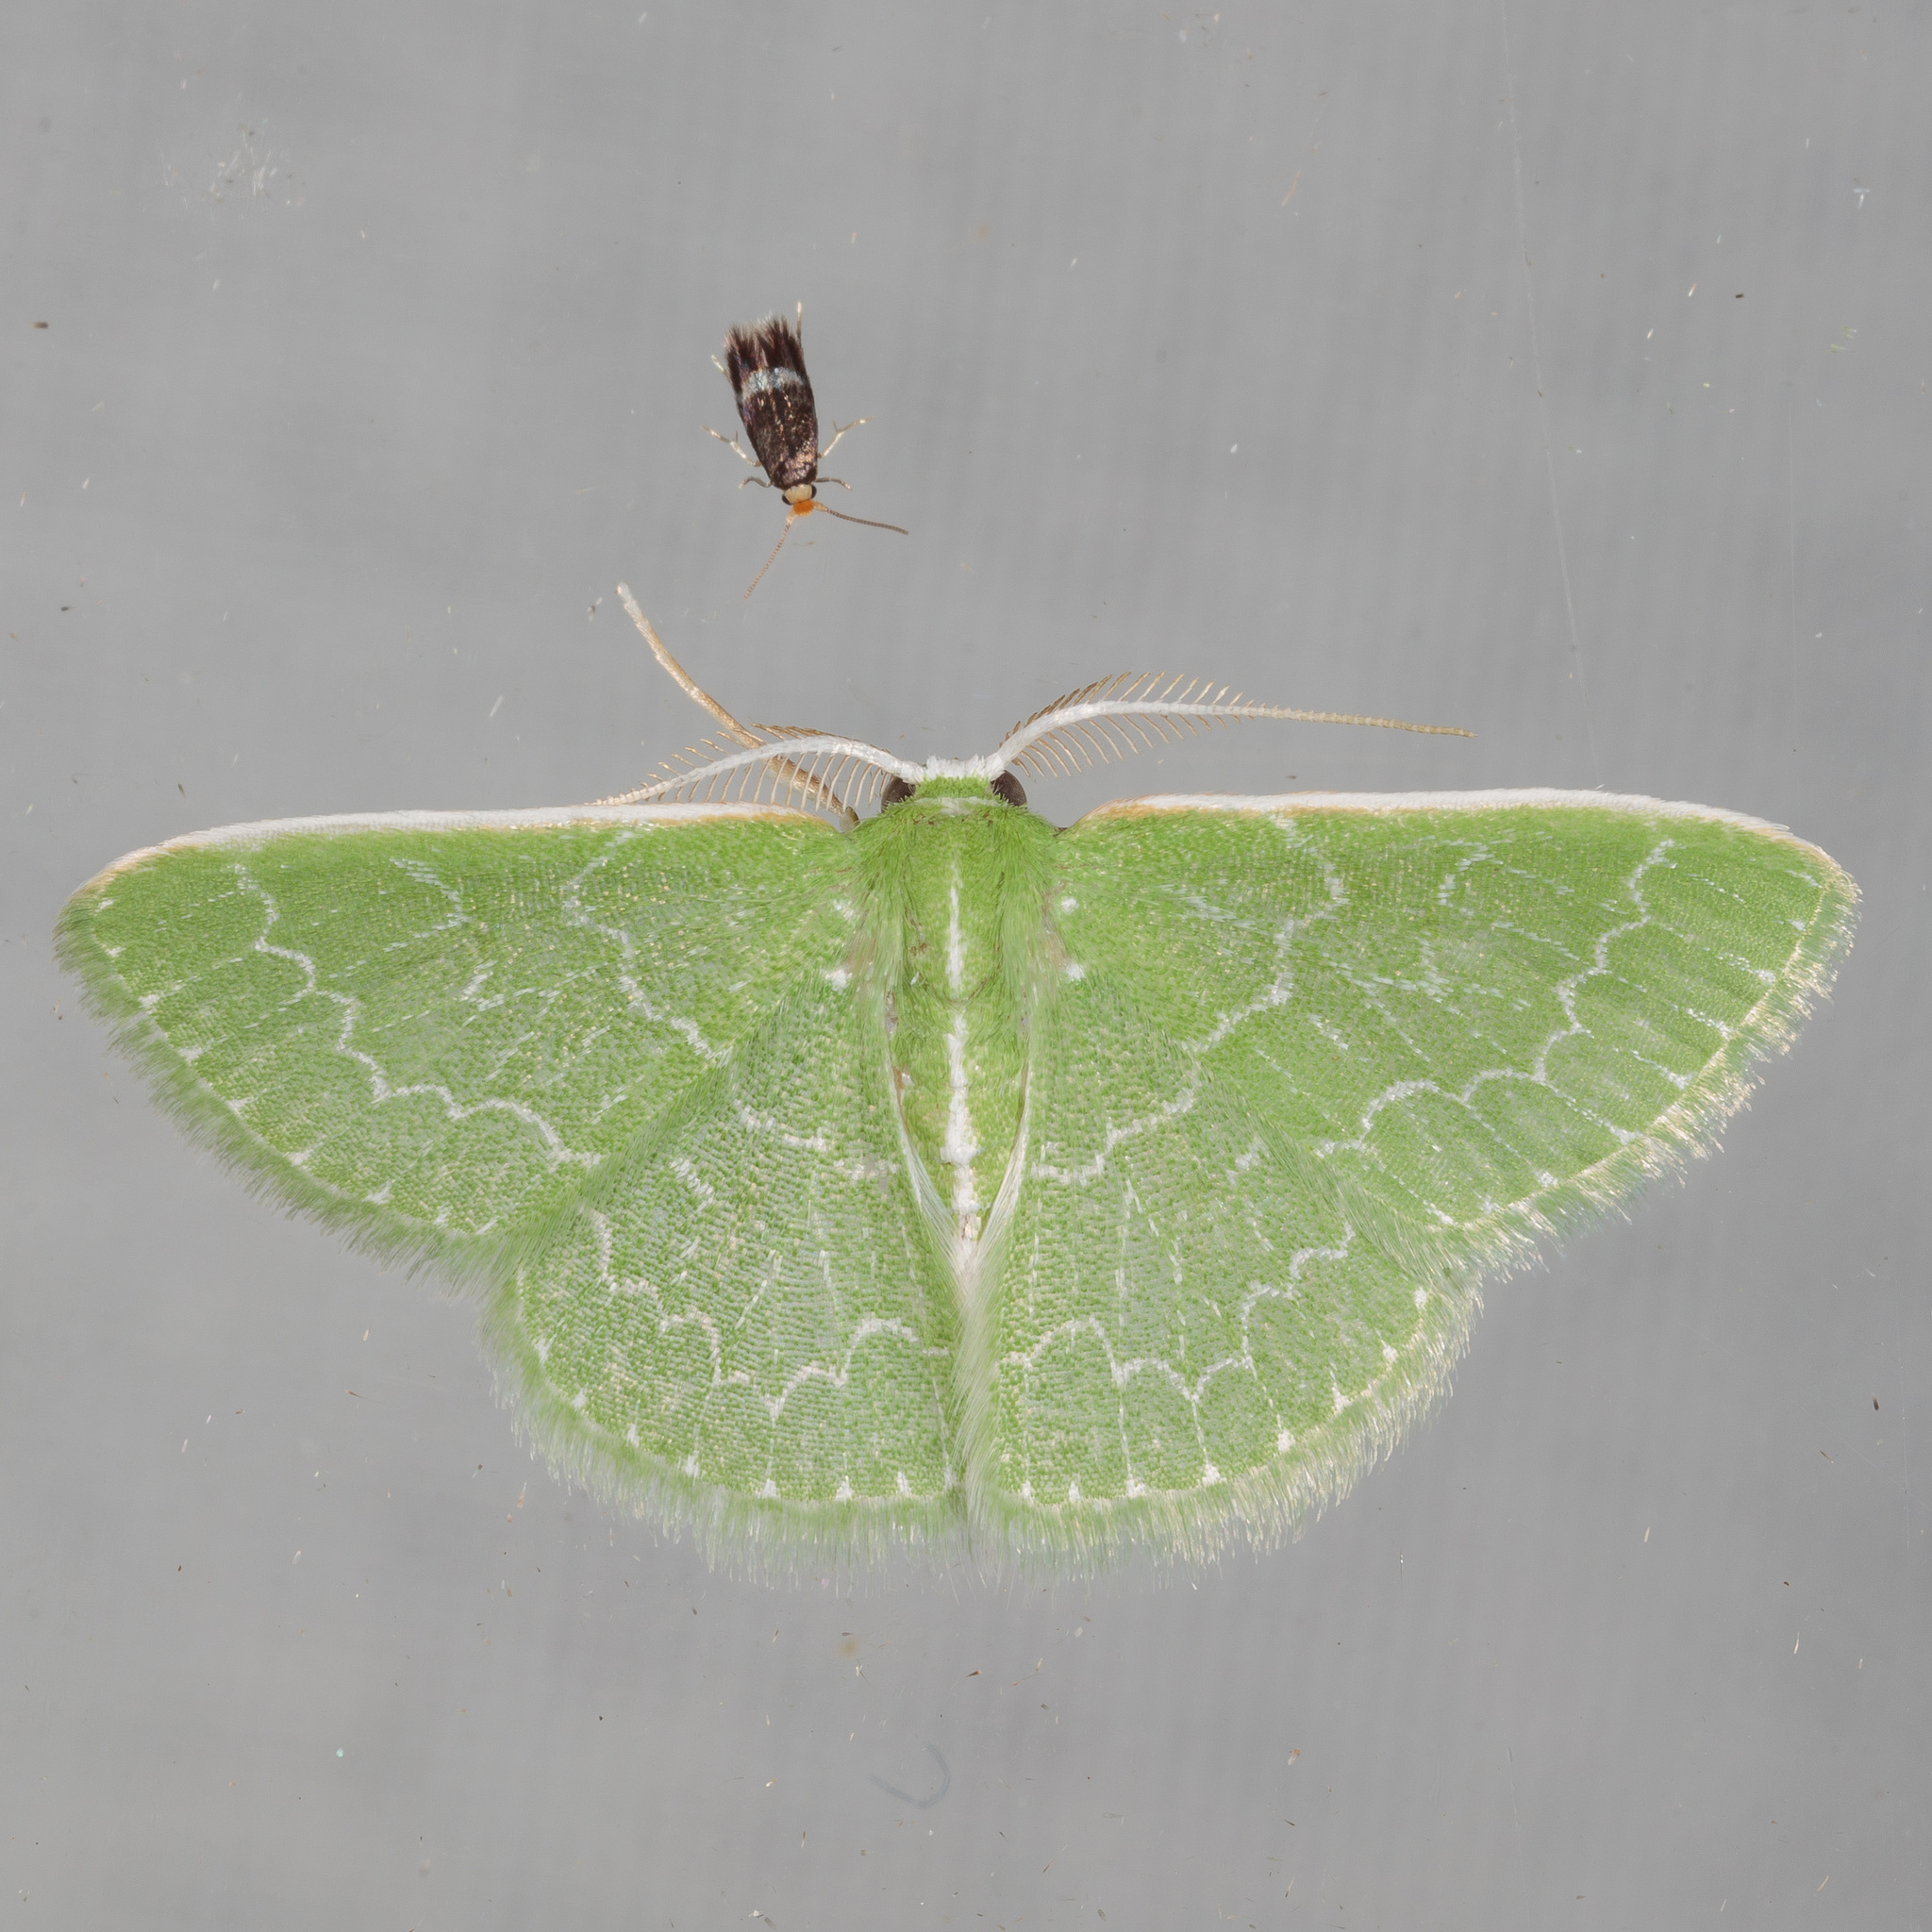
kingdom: Animalia
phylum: Arthropoda
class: Insecta
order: Lepidoptera
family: Geometridae
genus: Synchlora
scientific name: Synchlora frondaria
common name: Southern emerald
